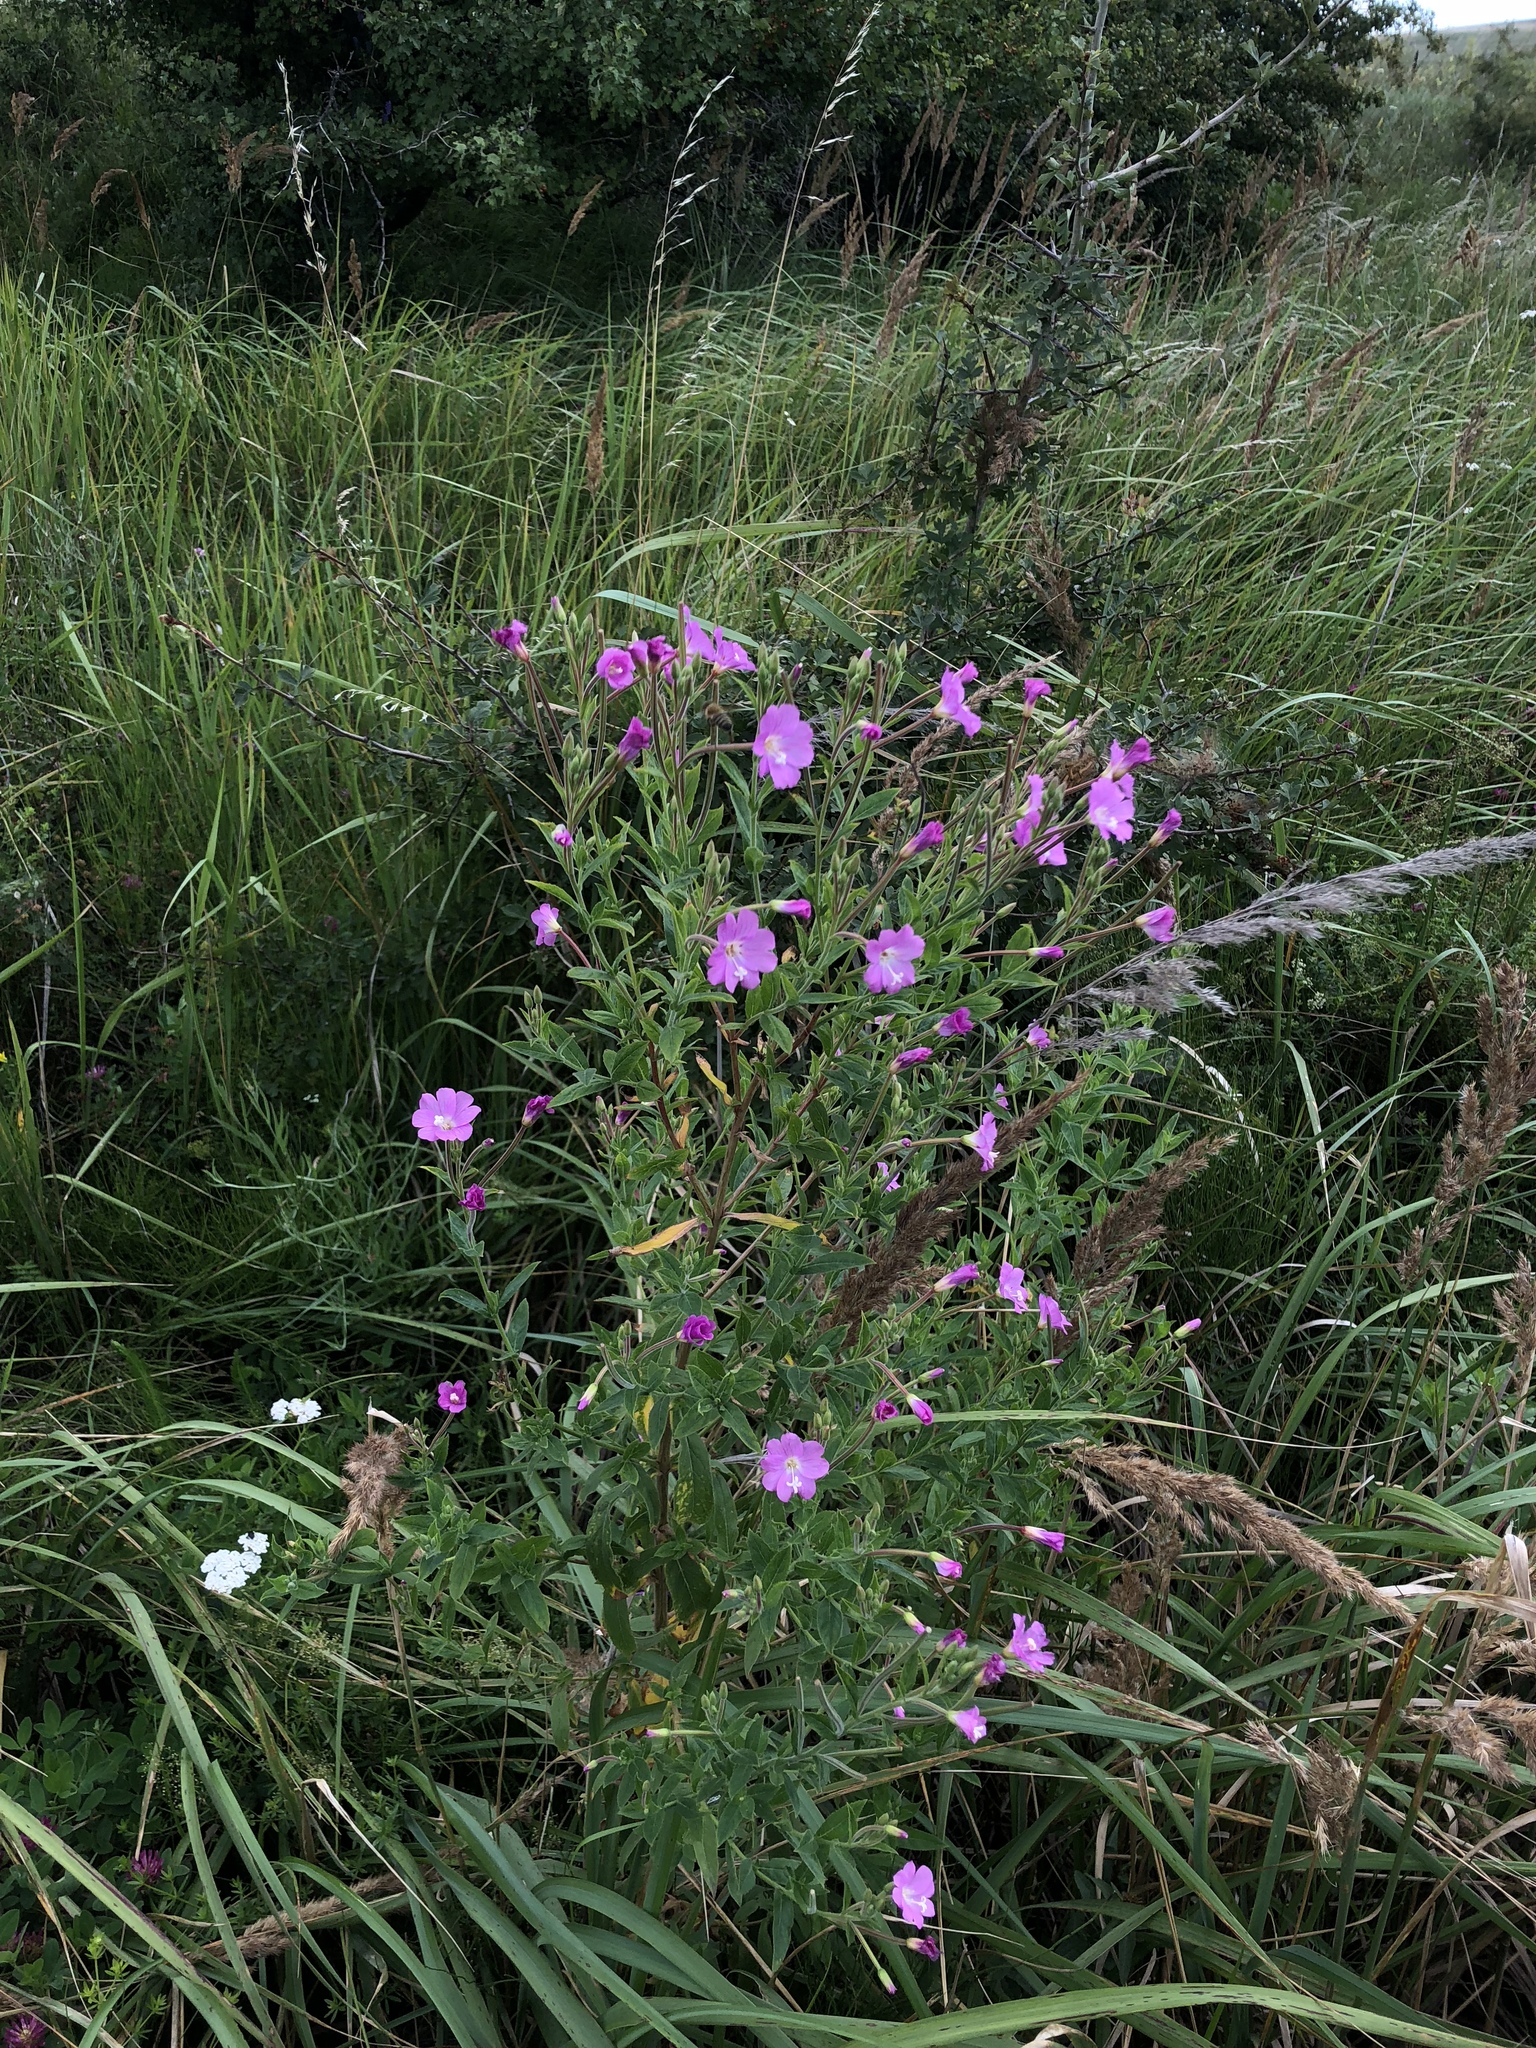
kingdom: Plantae
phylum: Tracheophyta
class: Magnoliopsida
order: Myrtales
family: Onagraceae
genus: Epilobium
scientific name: Epilobium hirsutum
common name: Great willowherb
